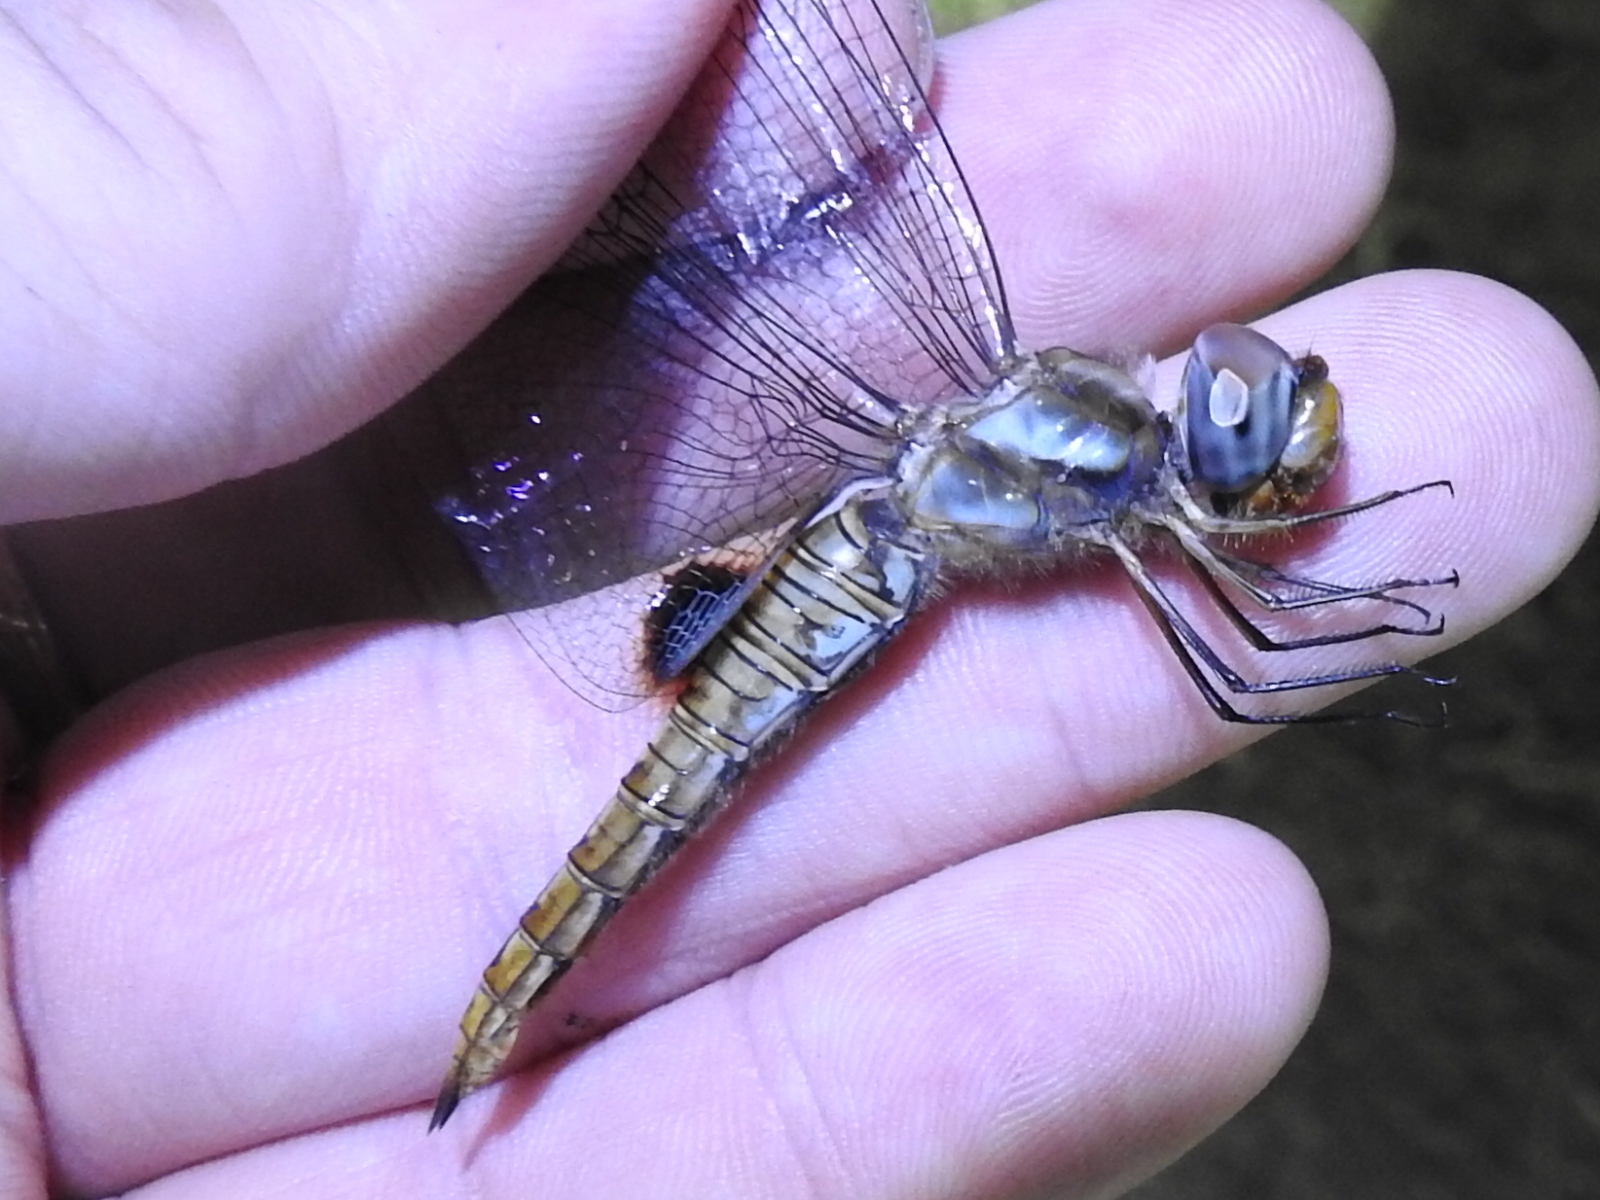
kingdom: Animalia
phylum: Arthropoda
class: Insecta
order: Odonata
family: Libellulidae
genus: Pantala
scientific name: Pantala hymenaea
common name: Spot-winged glider
